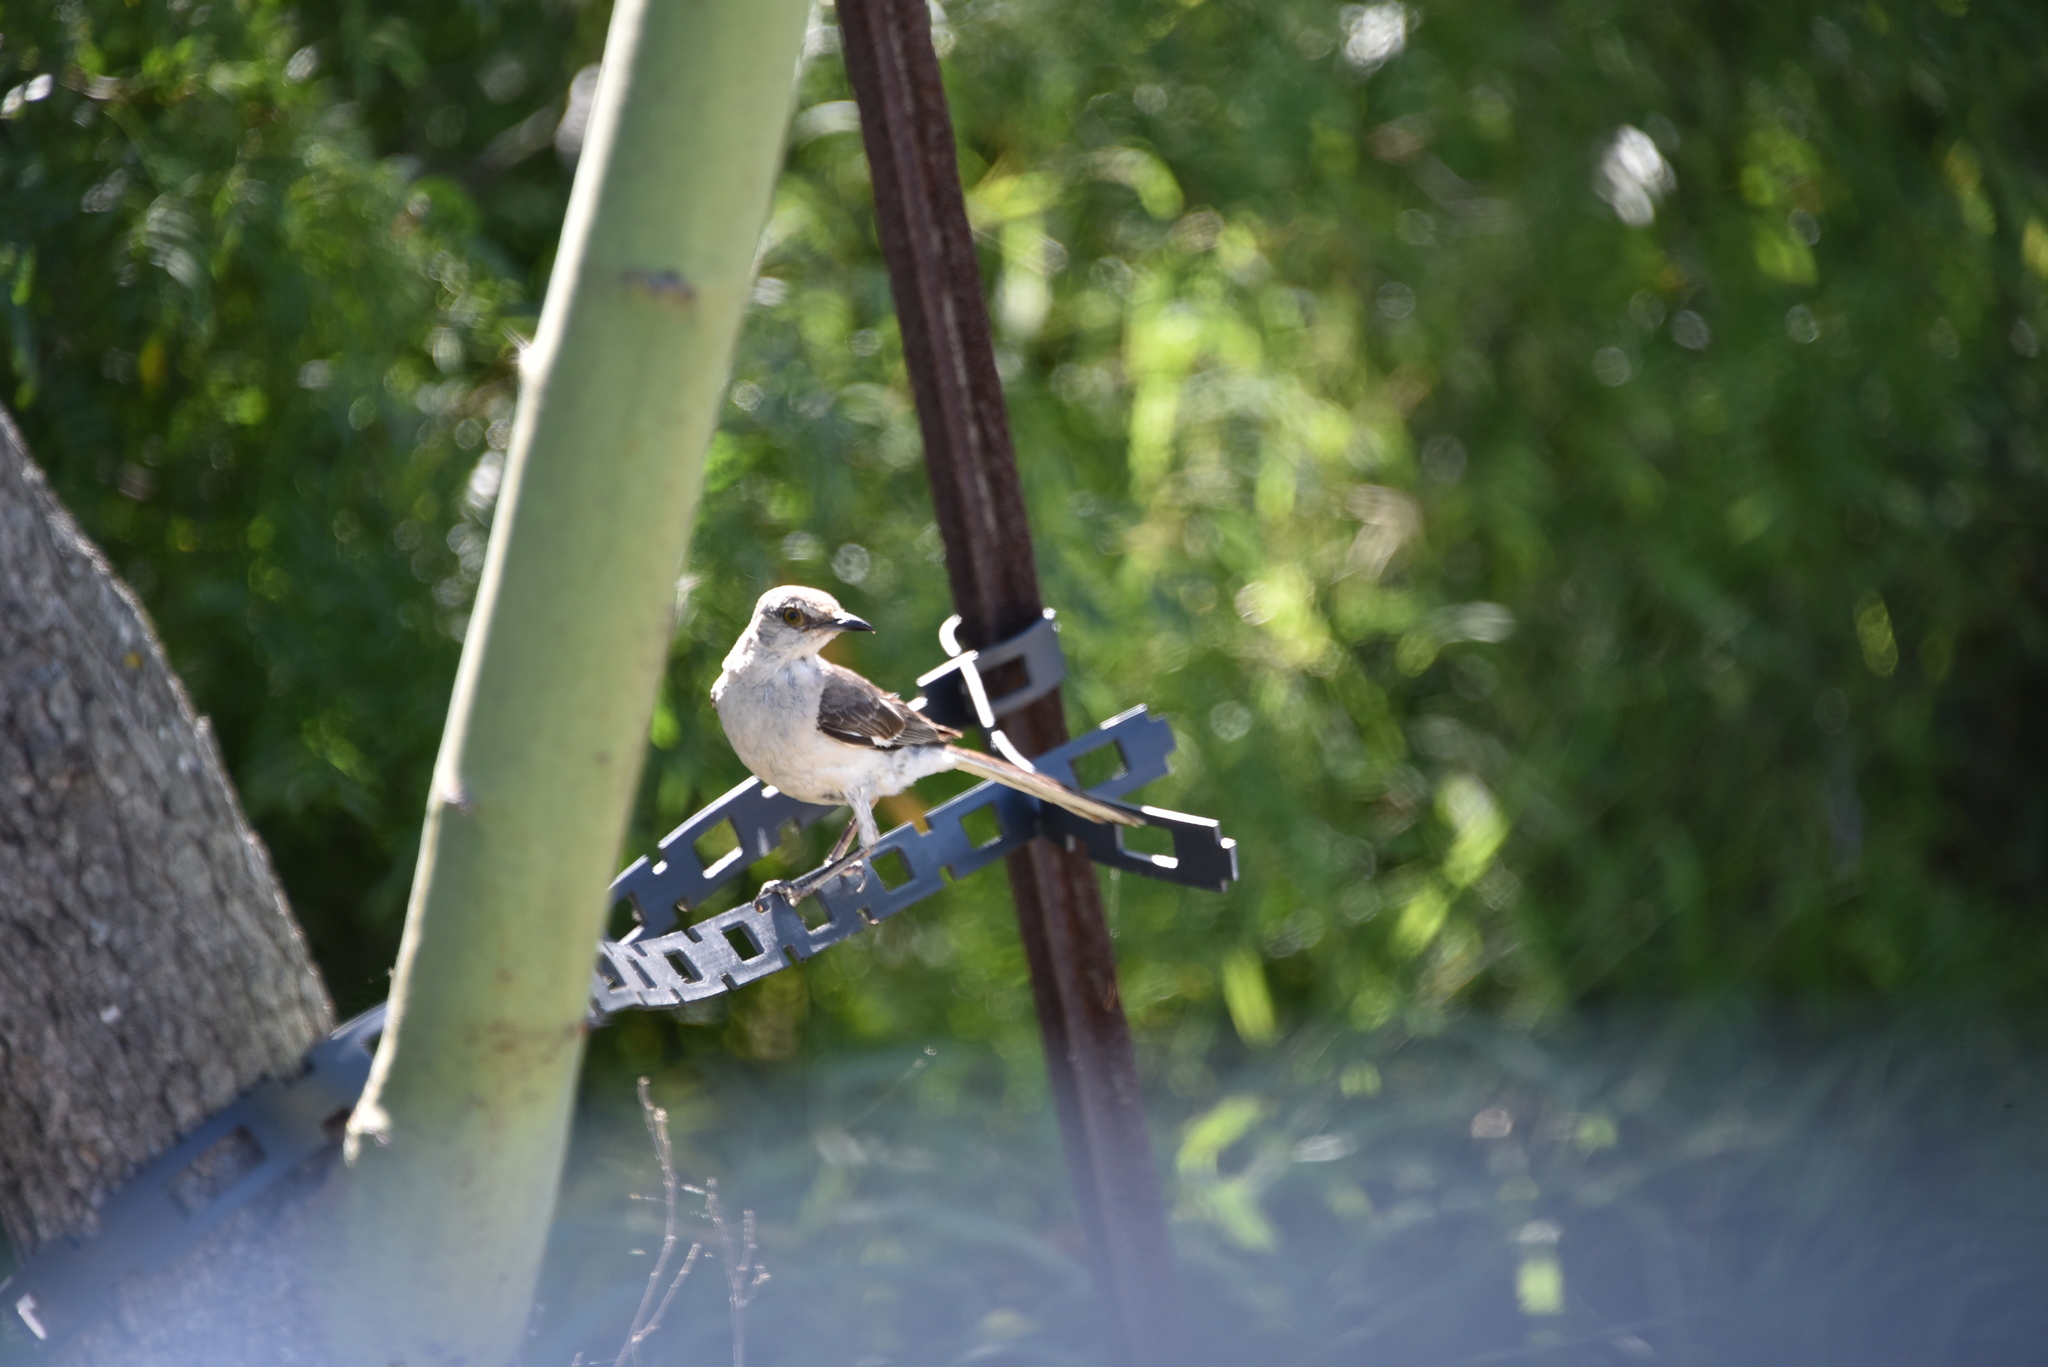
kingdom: Animalia
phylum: Chordata
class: Aves
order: Passeriformes
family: Mimidae
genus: Mimus
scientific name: Mimus polyglottos
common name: Northern mockingbird
